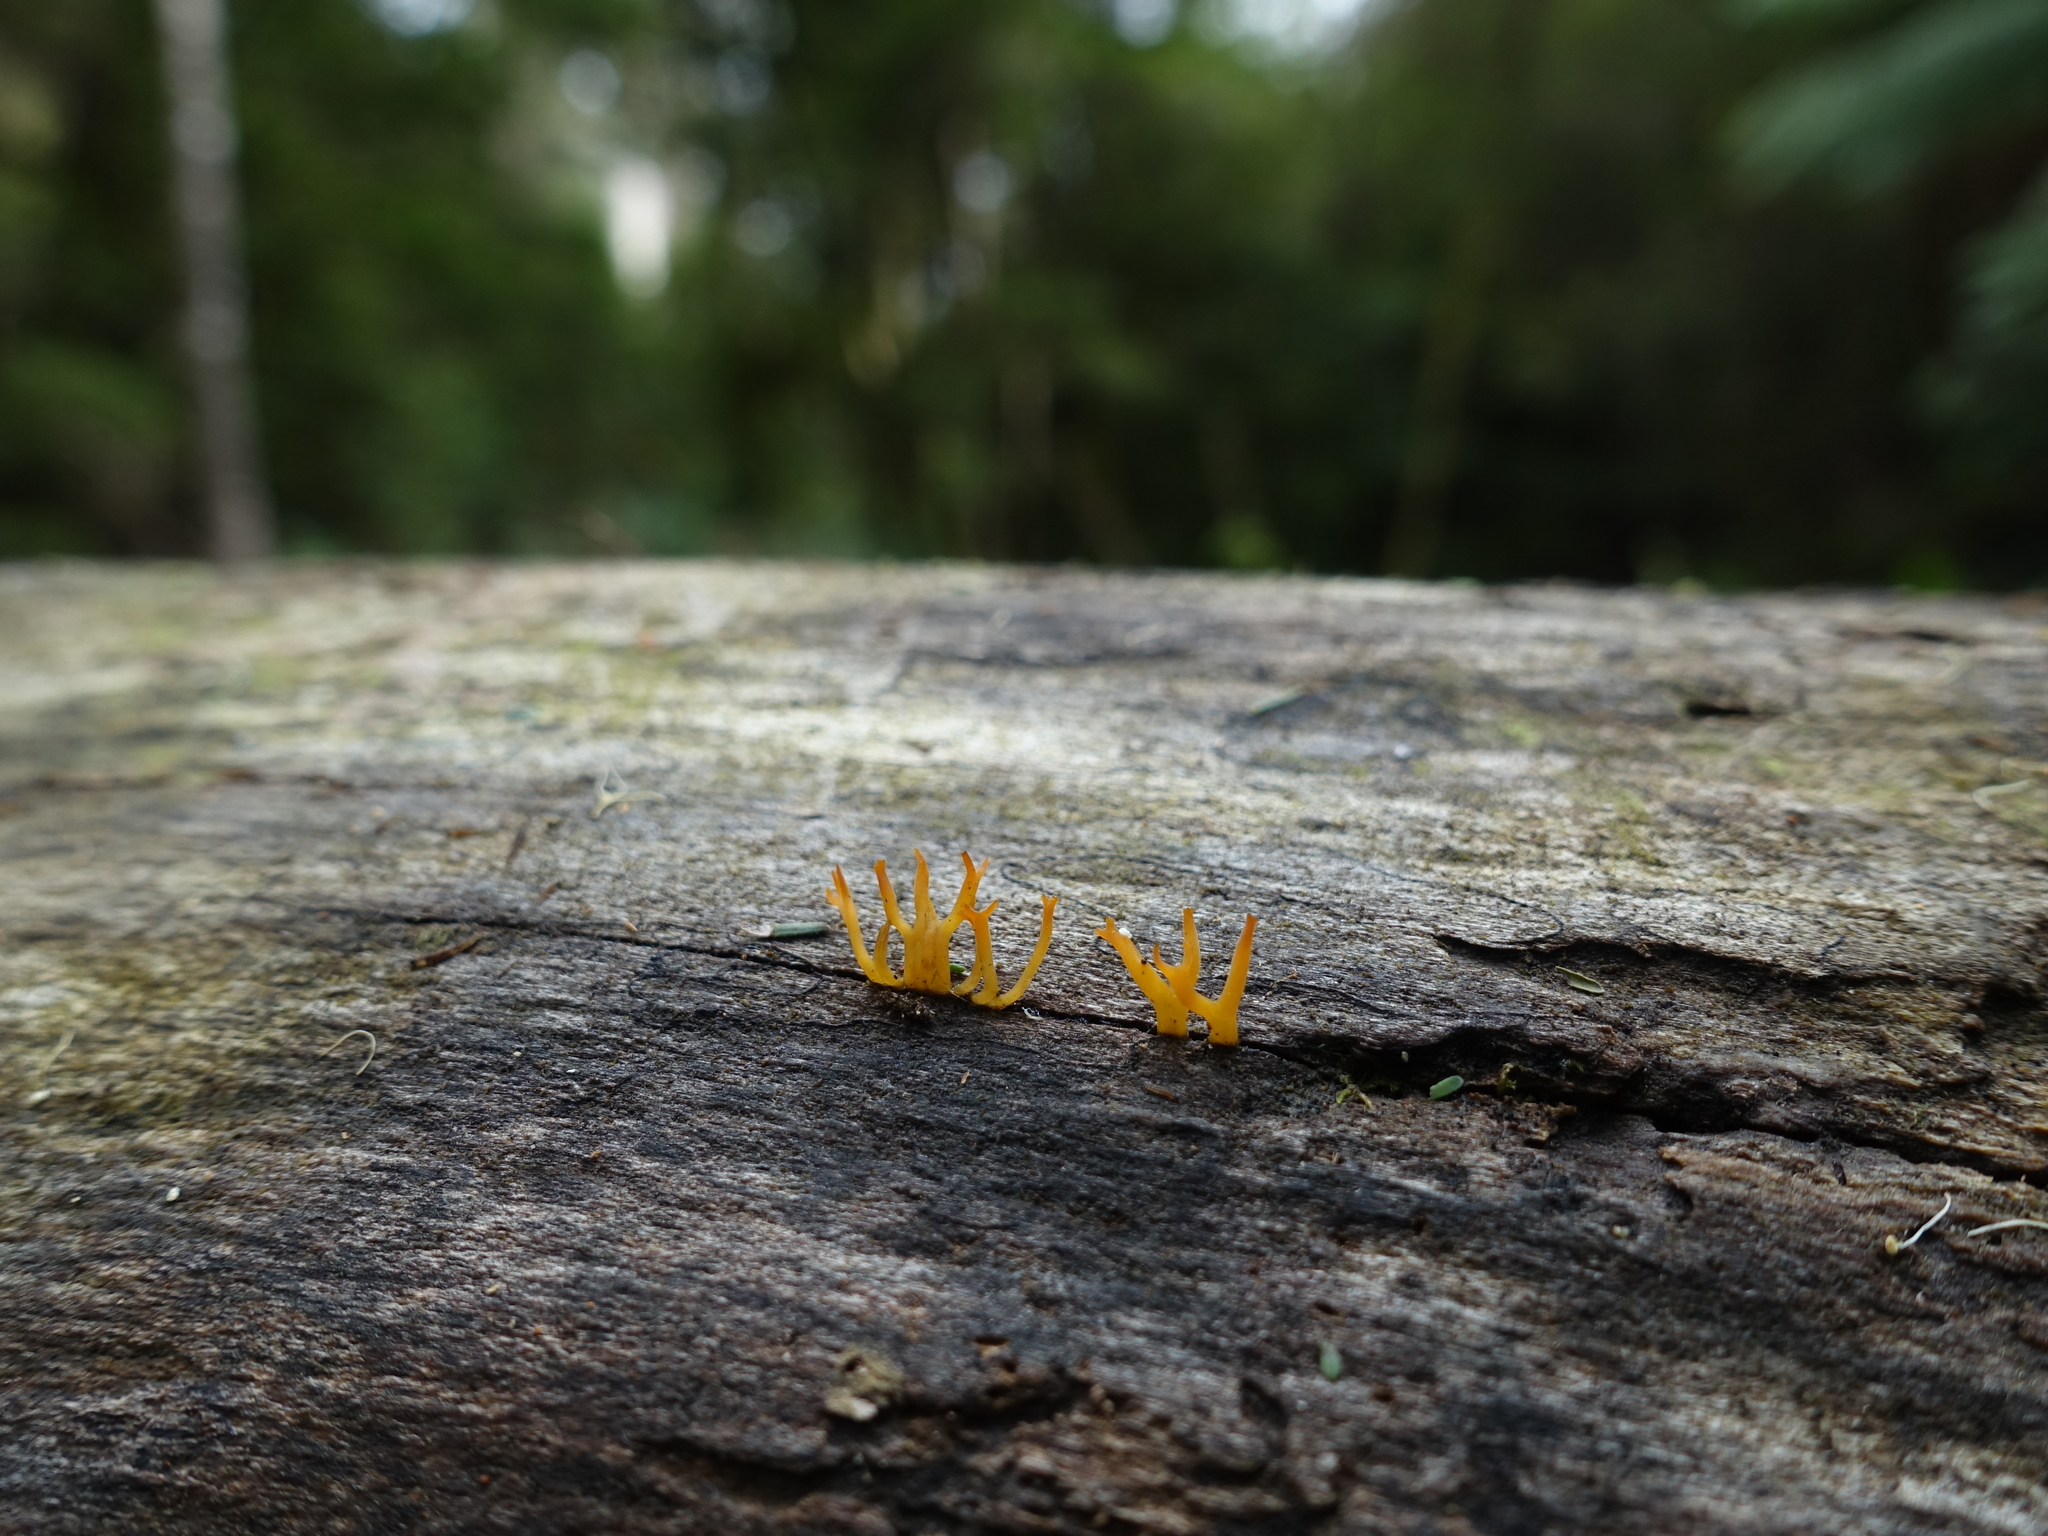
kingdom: Fungi
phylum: Basidiomycota
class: Dacrymycetes
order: Dacrymycetales
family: Dacrymycetaceae
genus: Calocera
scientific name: Calocera guepinioides
